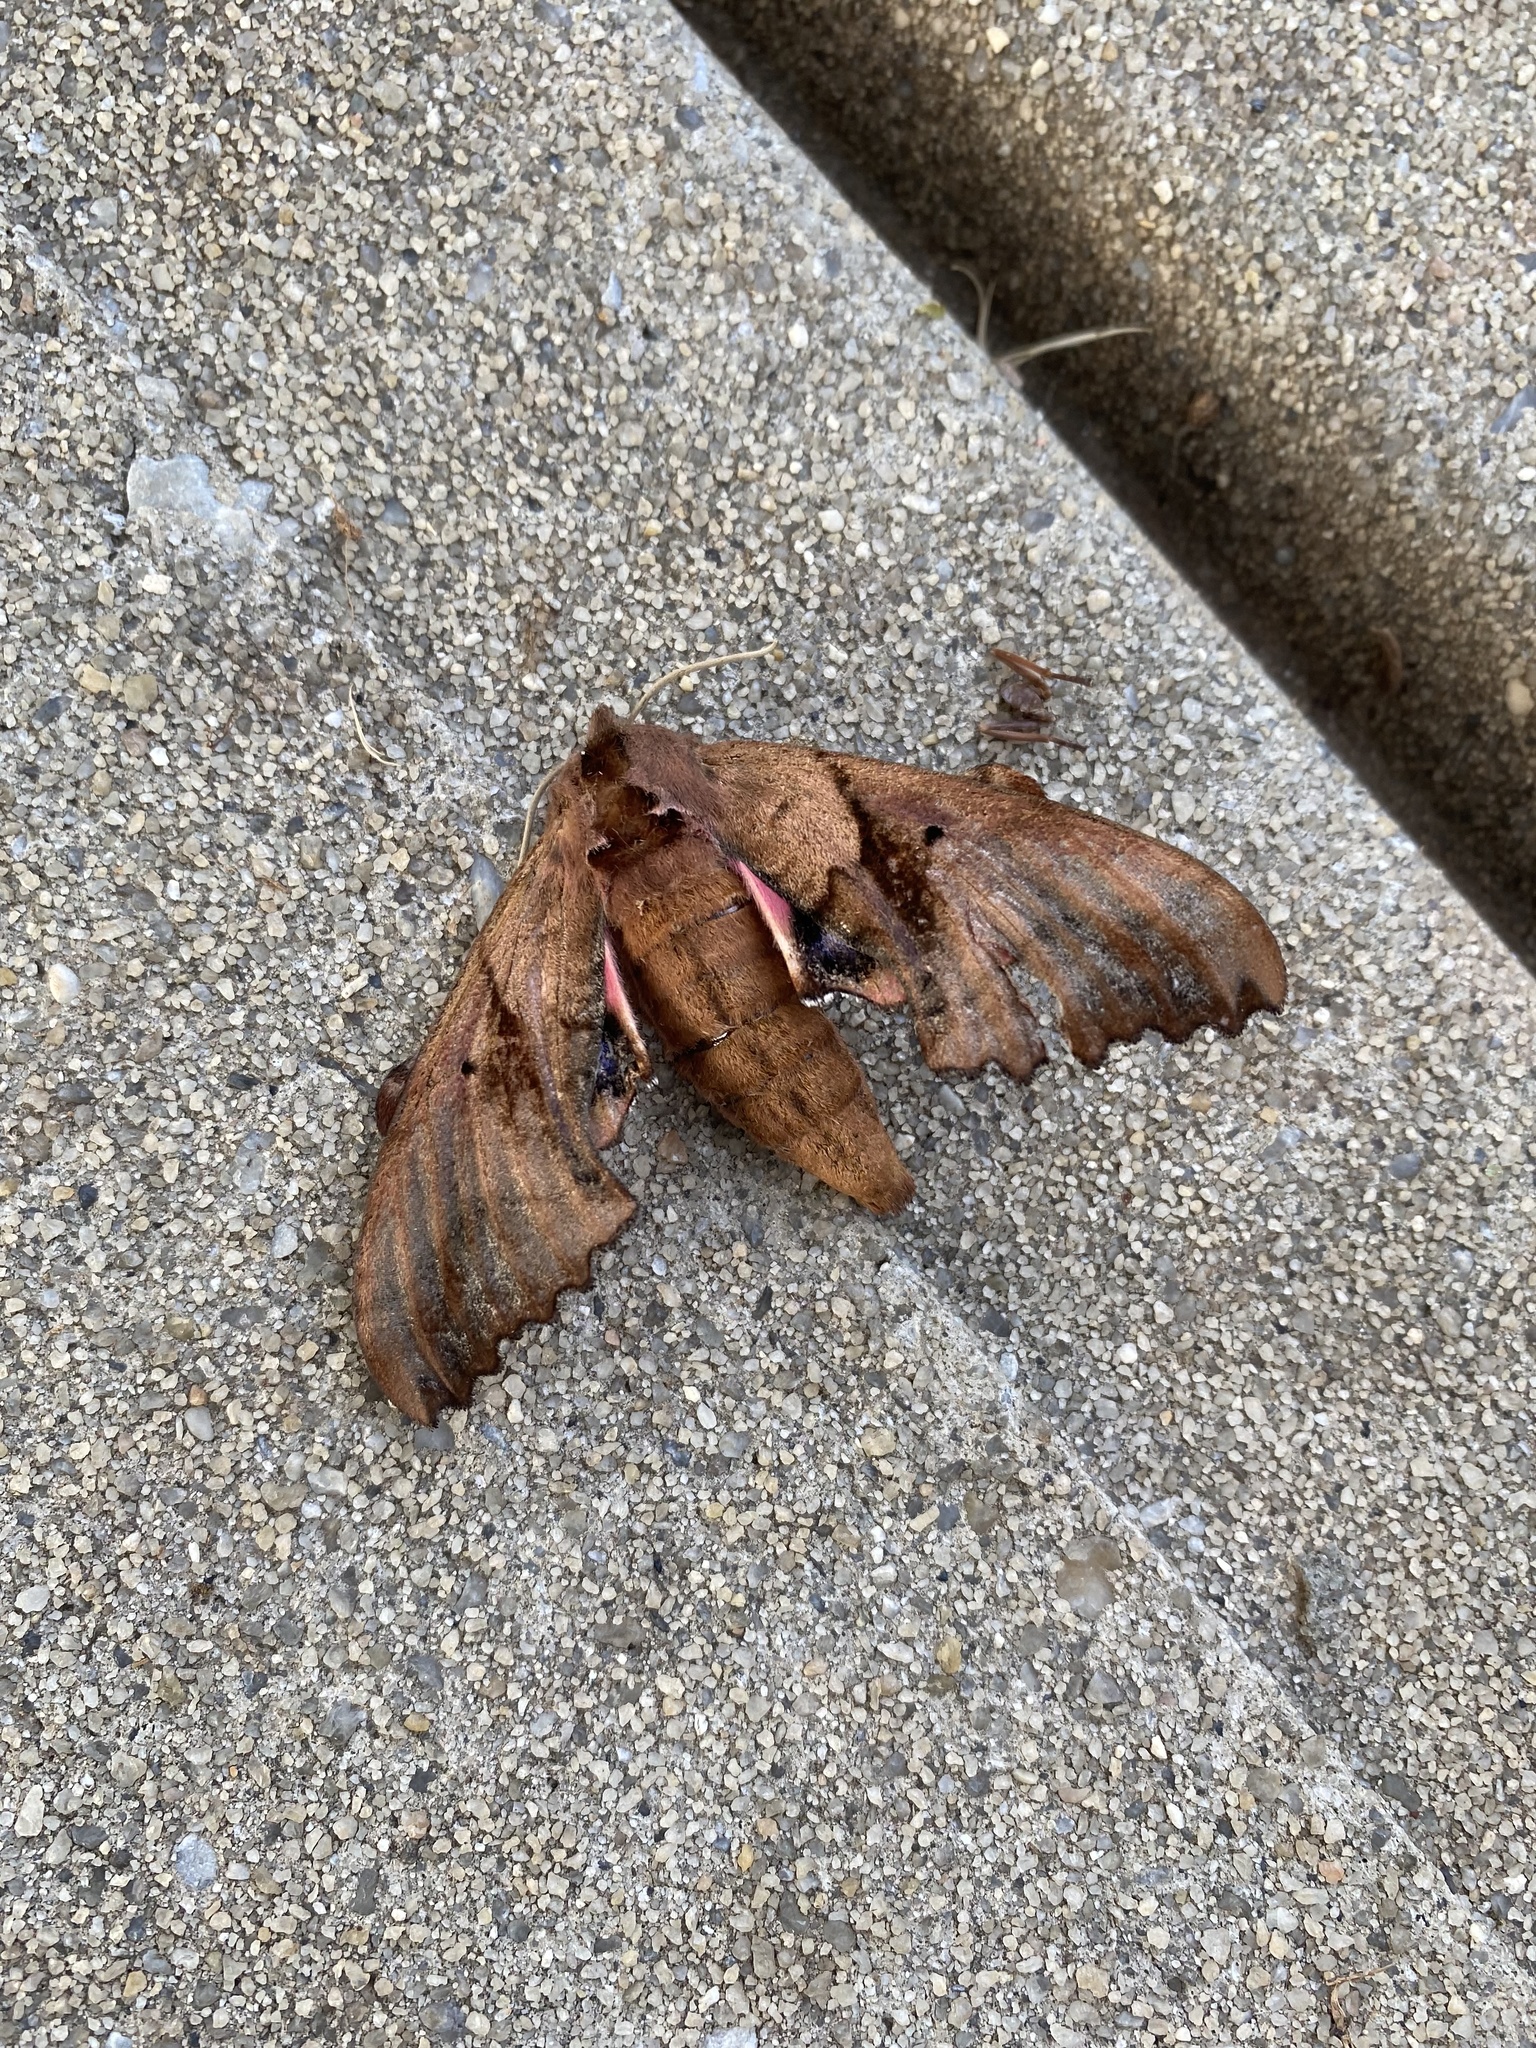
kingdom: Animalia
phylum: Arthropoda
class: Insecta
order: Lepidoptera
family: Sphingidae
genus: Paonias
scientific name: Paonias excaecata
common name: Blind-eyed sphinx
